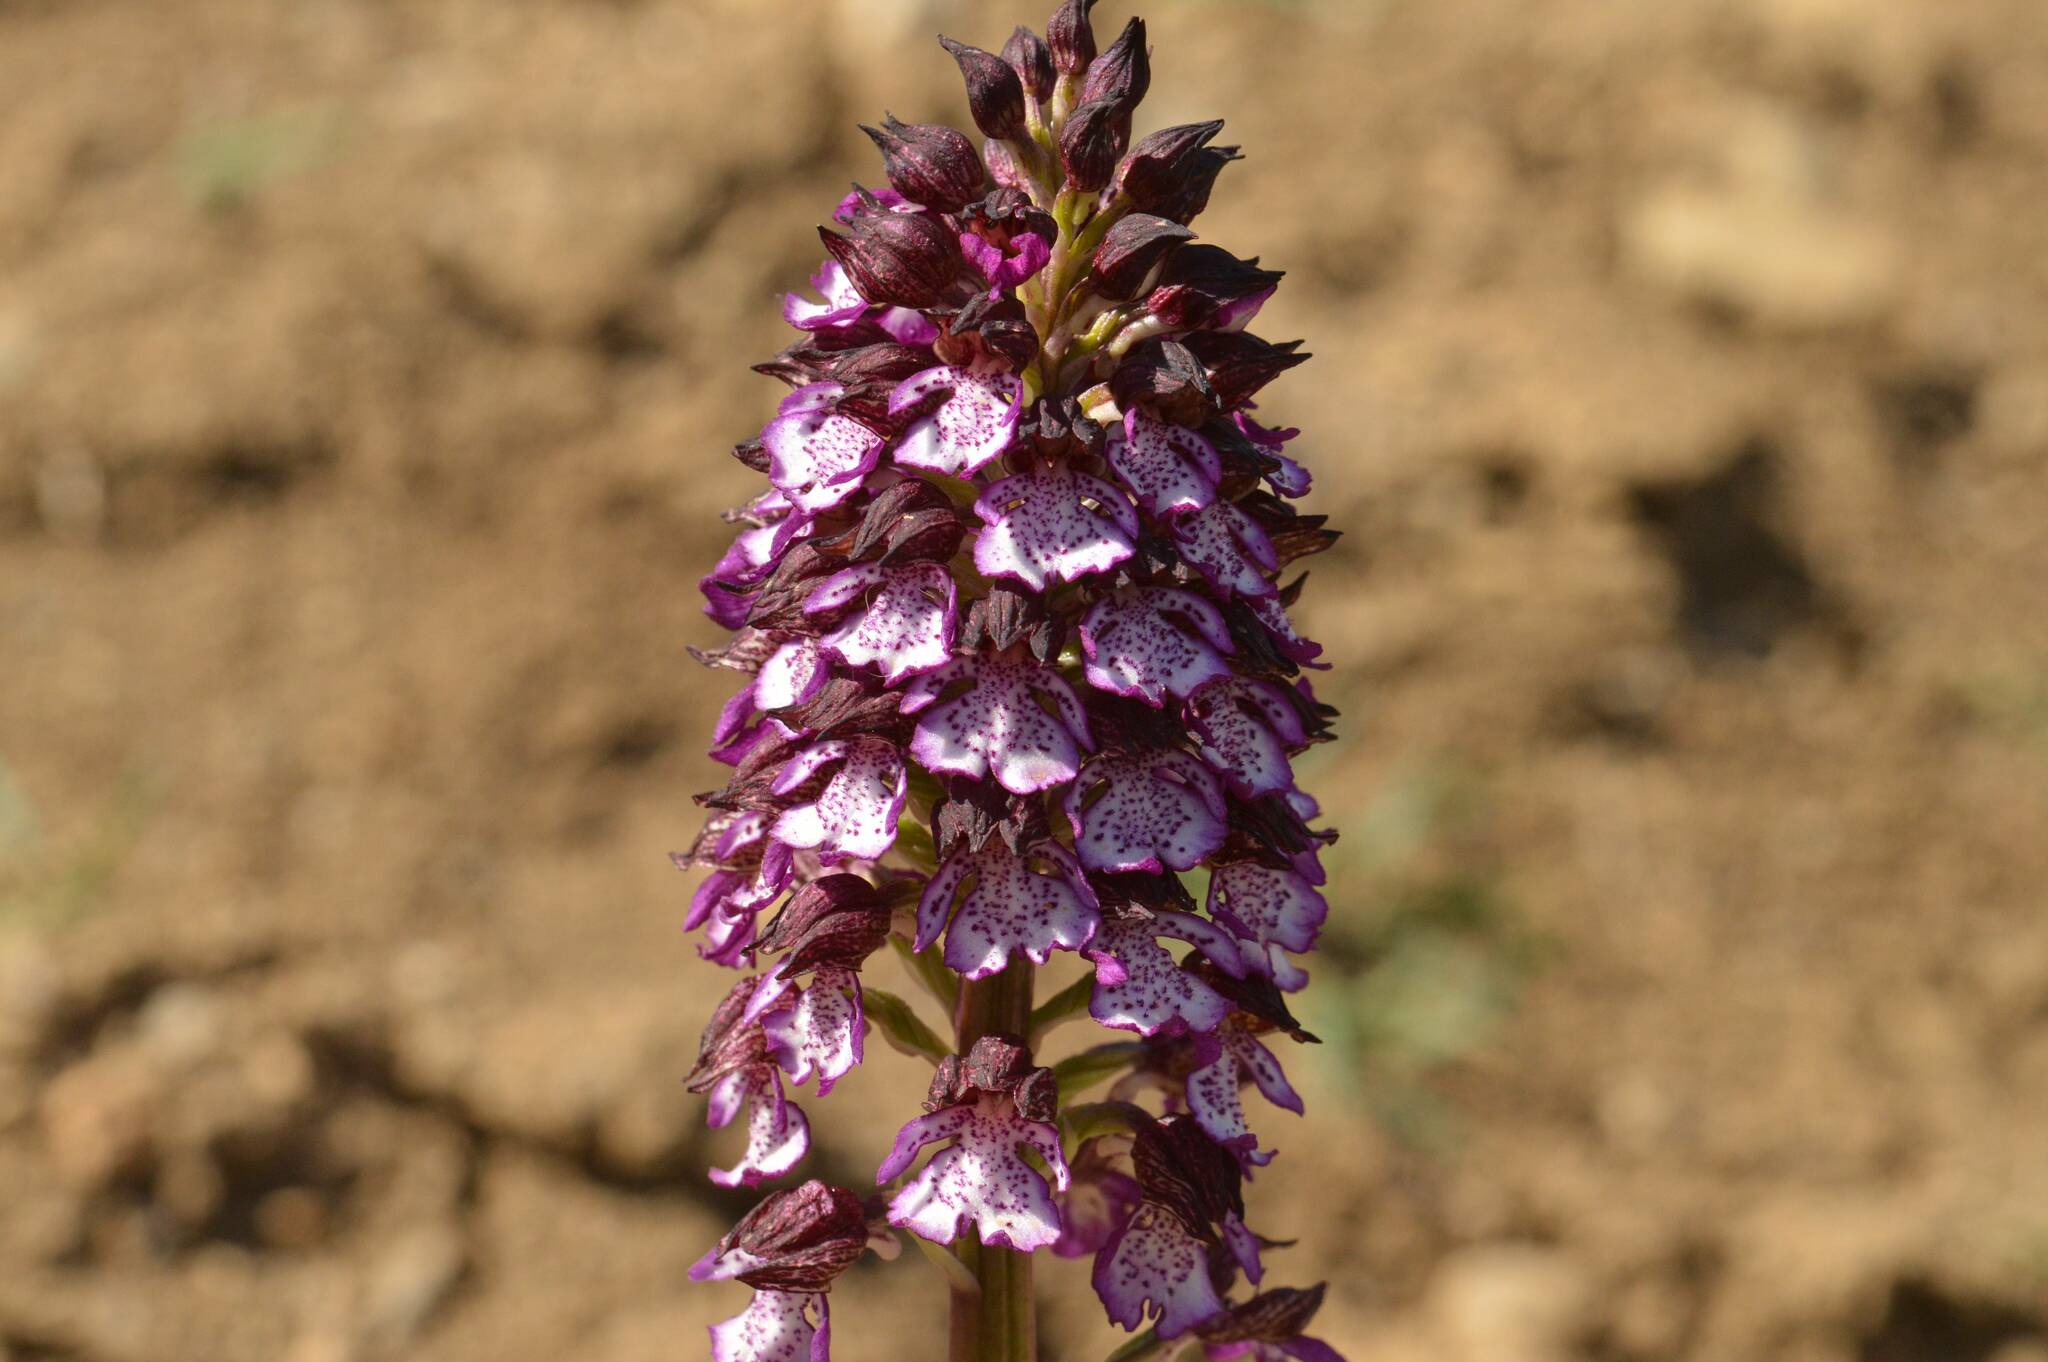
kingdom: Plantae
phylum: Tracheophyta
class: Liliopsida
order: Asparagales
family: Orchidaceae
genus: Orchis
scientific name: Orchis purpurea
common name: Lady orchid
